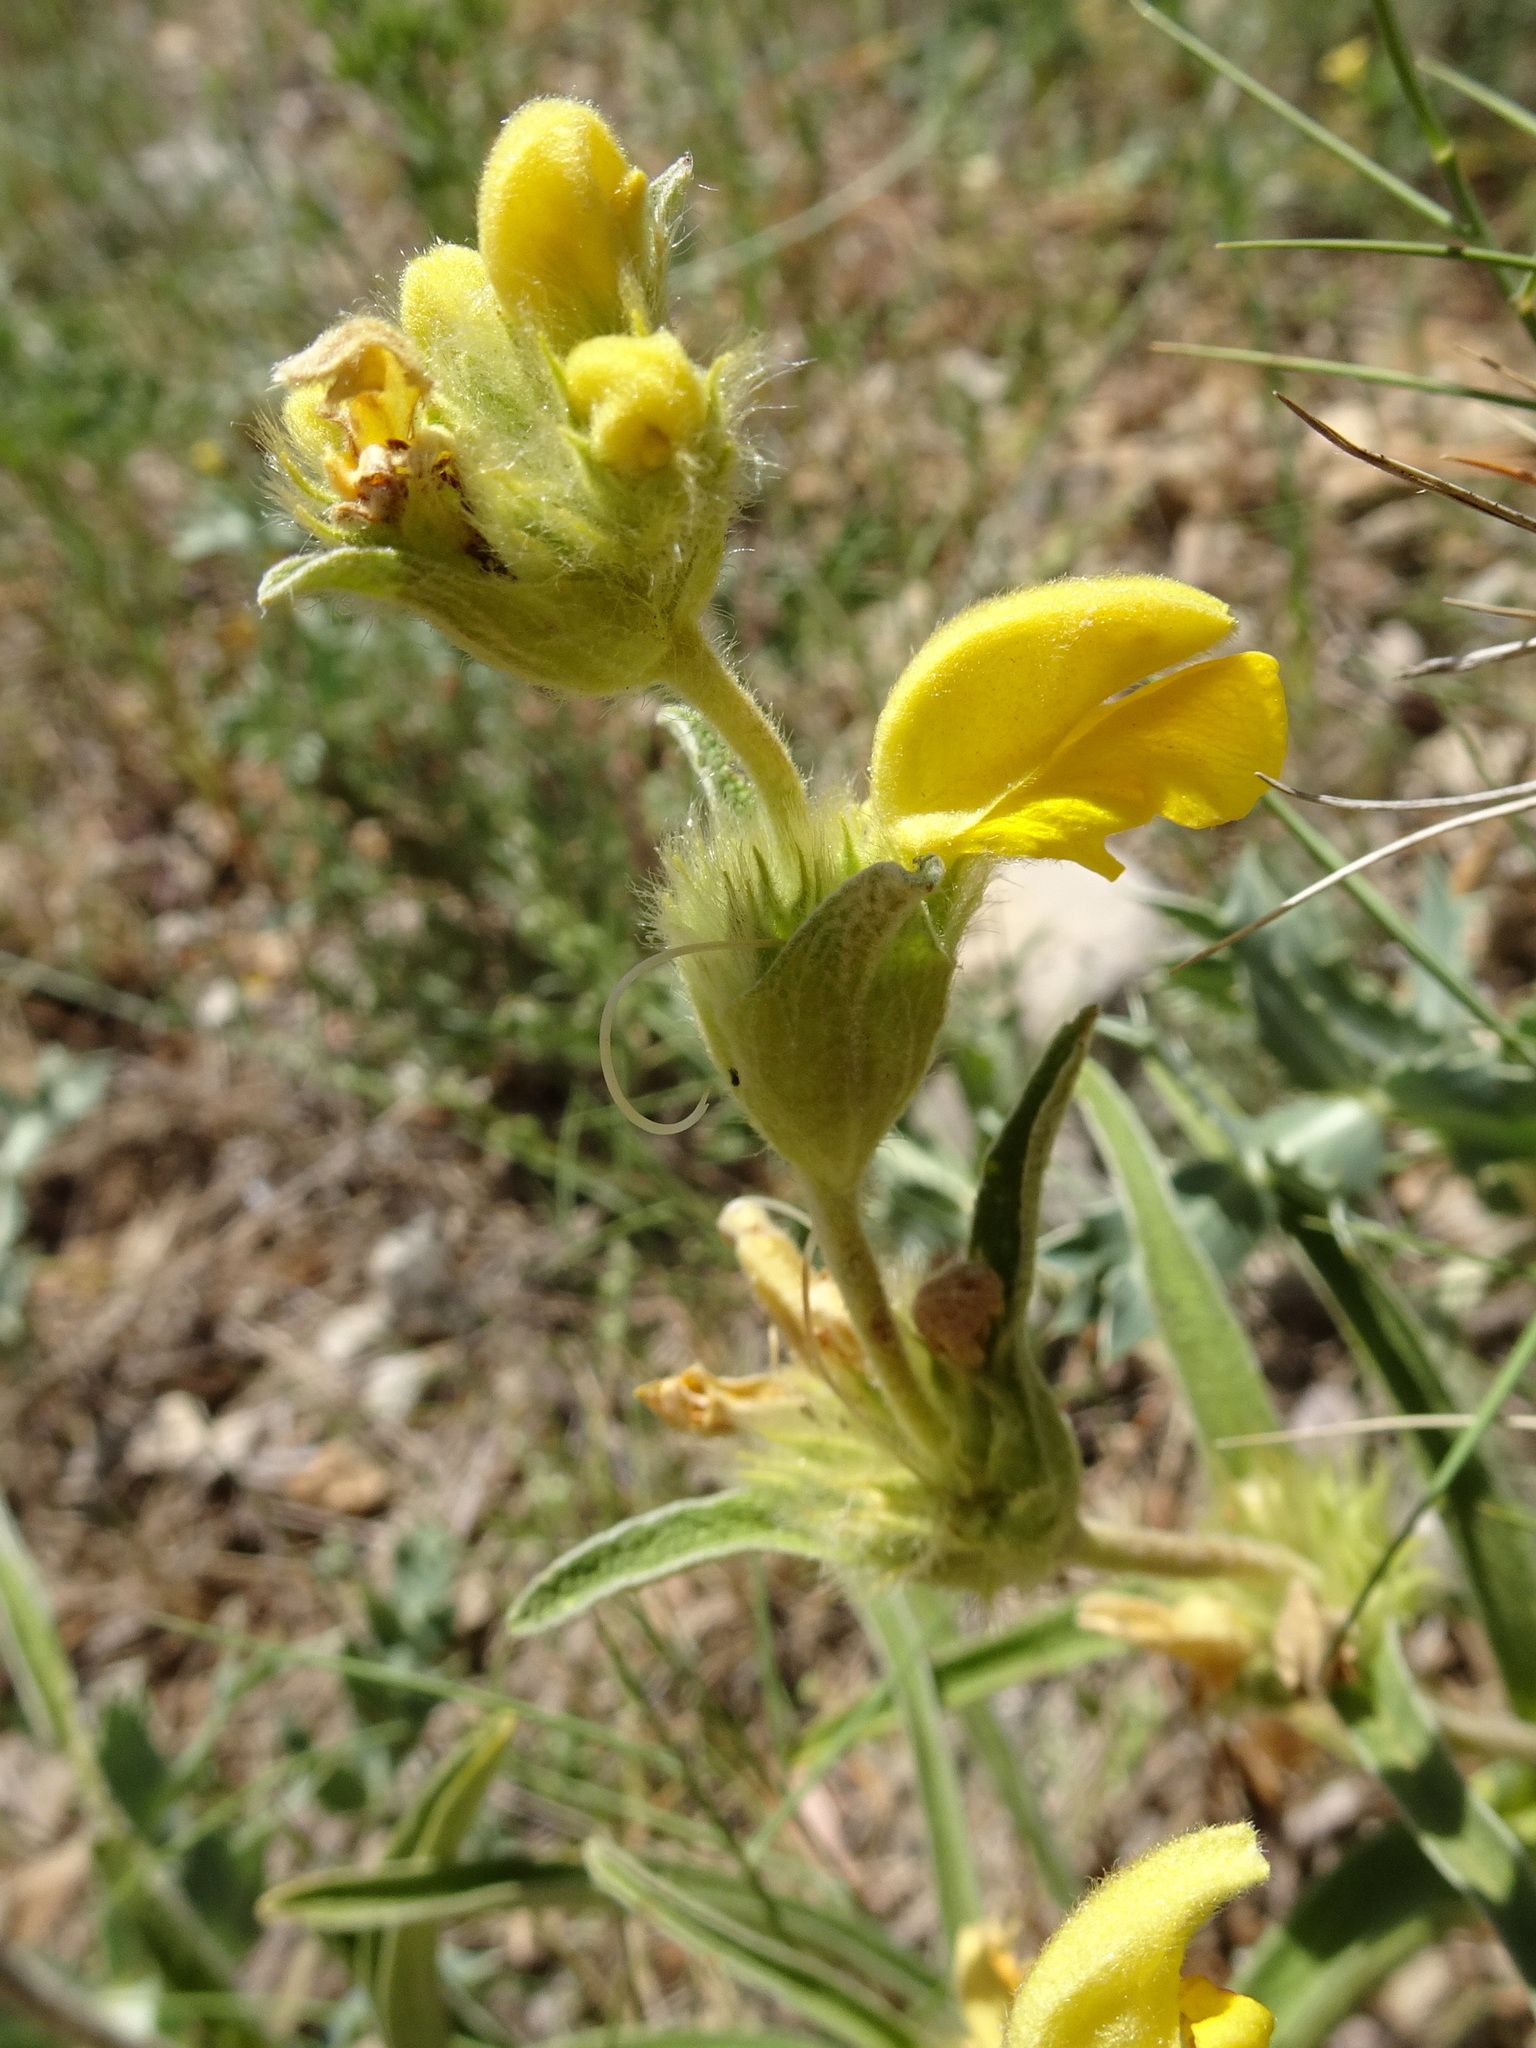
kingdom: Plantae
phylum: Tracheophyta
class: Magnoliopsida
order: Lamiales
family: Lamiaceae
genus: Phlomis
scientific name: Phlomis lychnitis
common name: Lampwickplant
